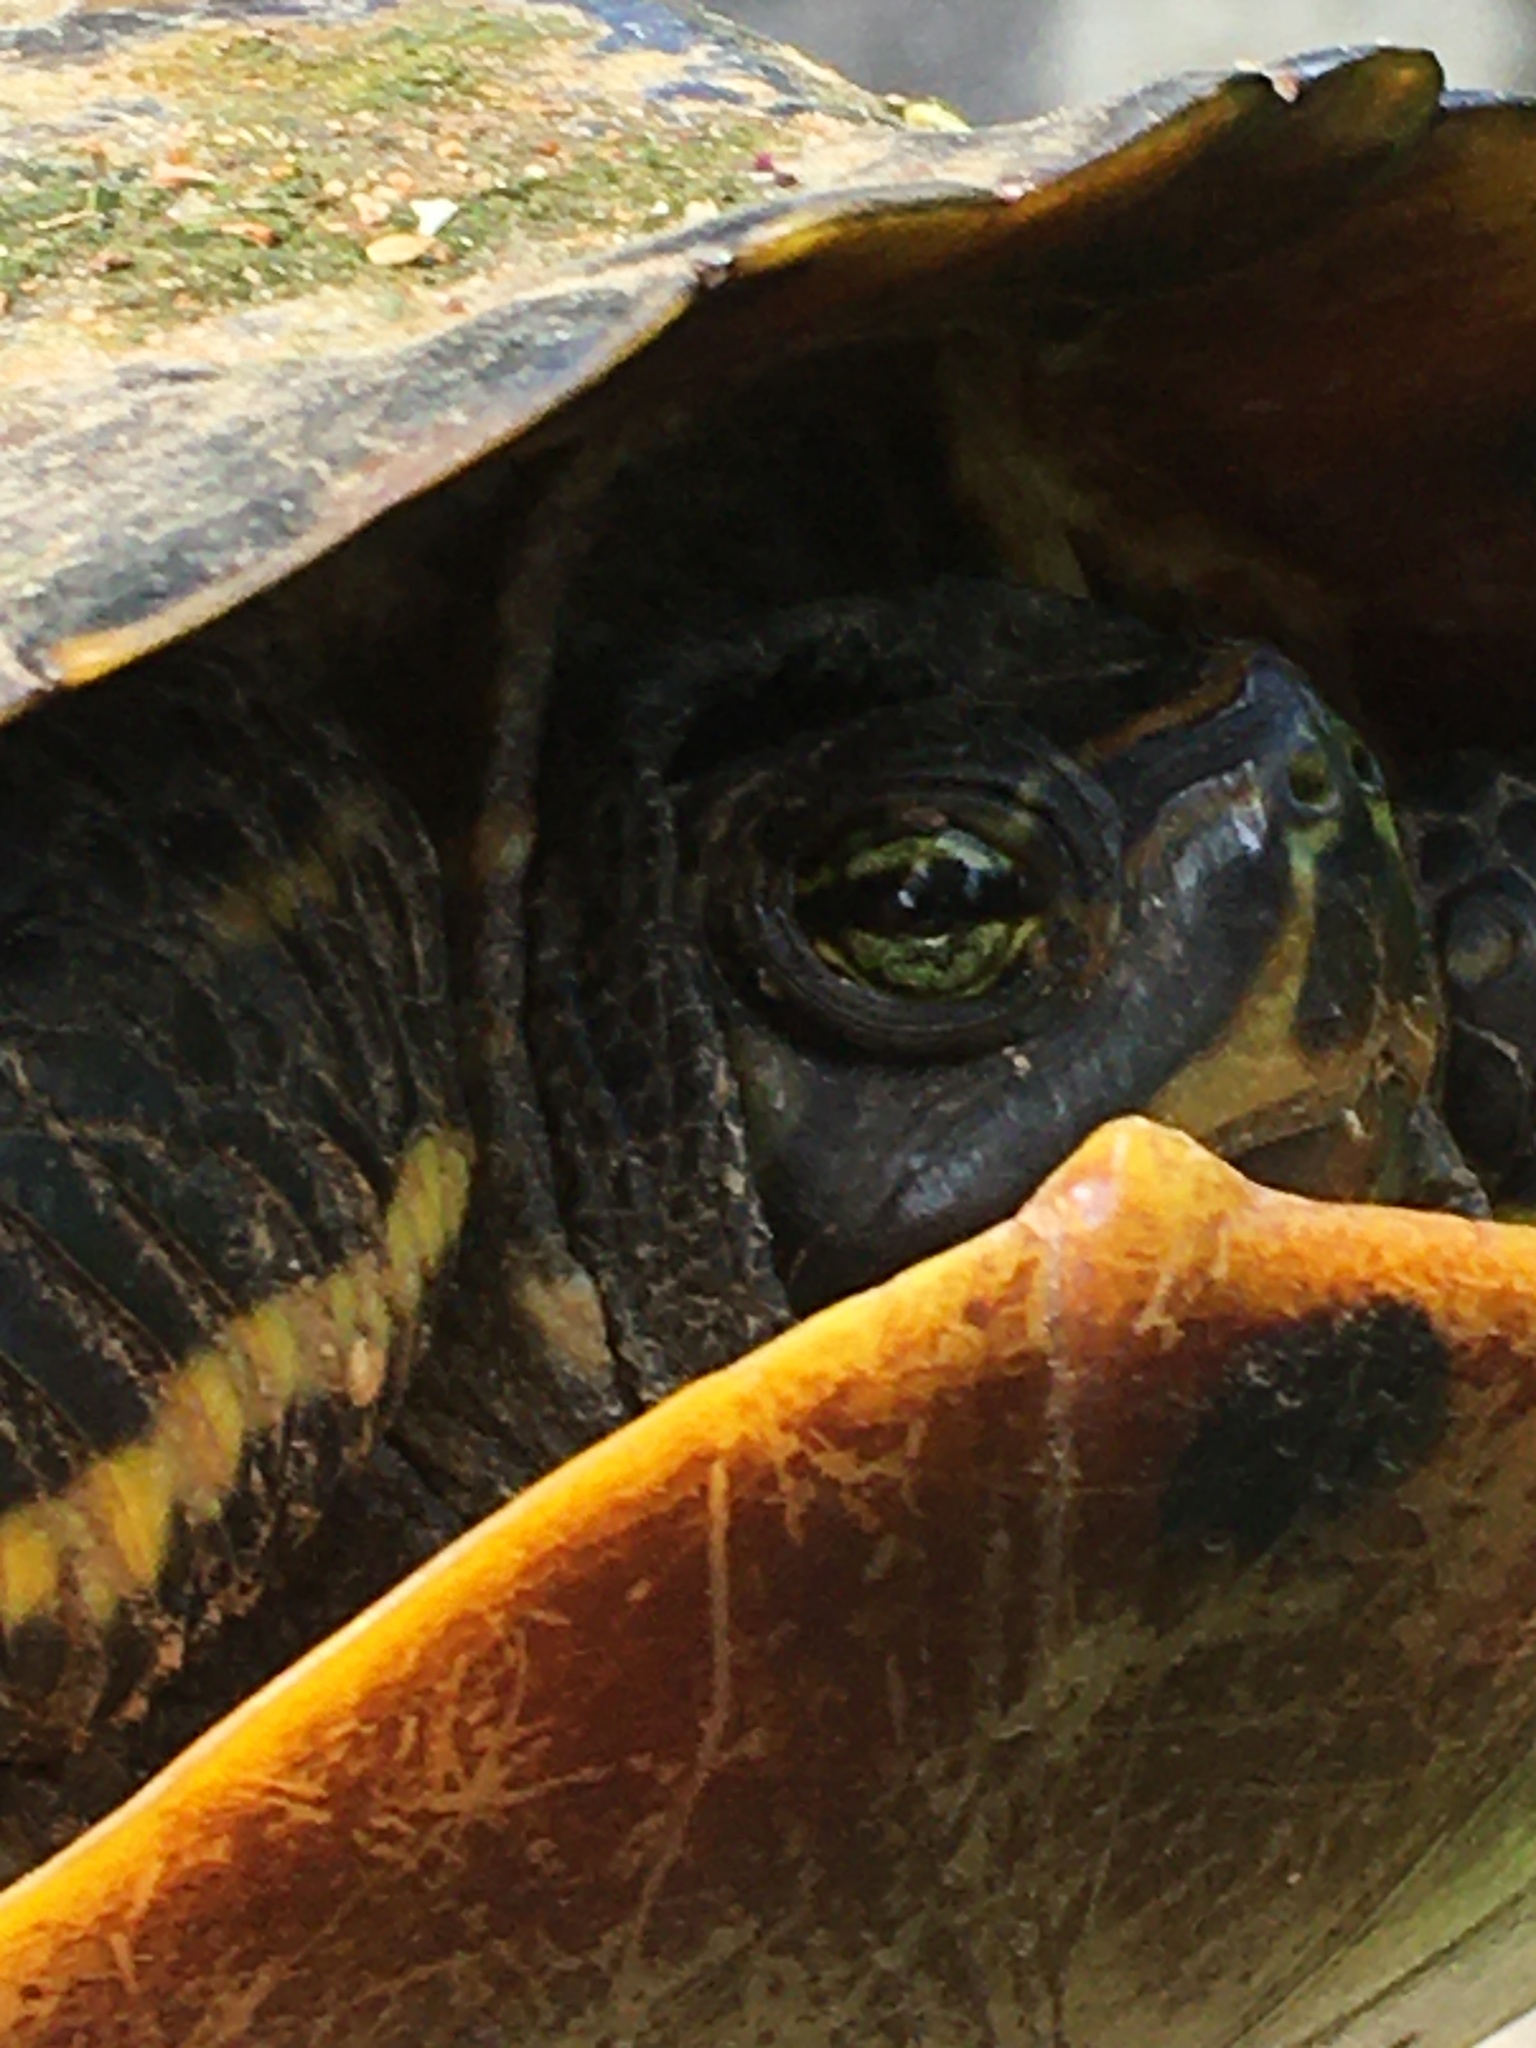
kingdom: Animalia
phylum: Chordata
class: Testudines
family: Emydidae
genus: Trachemys
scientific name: Trachemys scripta
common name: Slider
